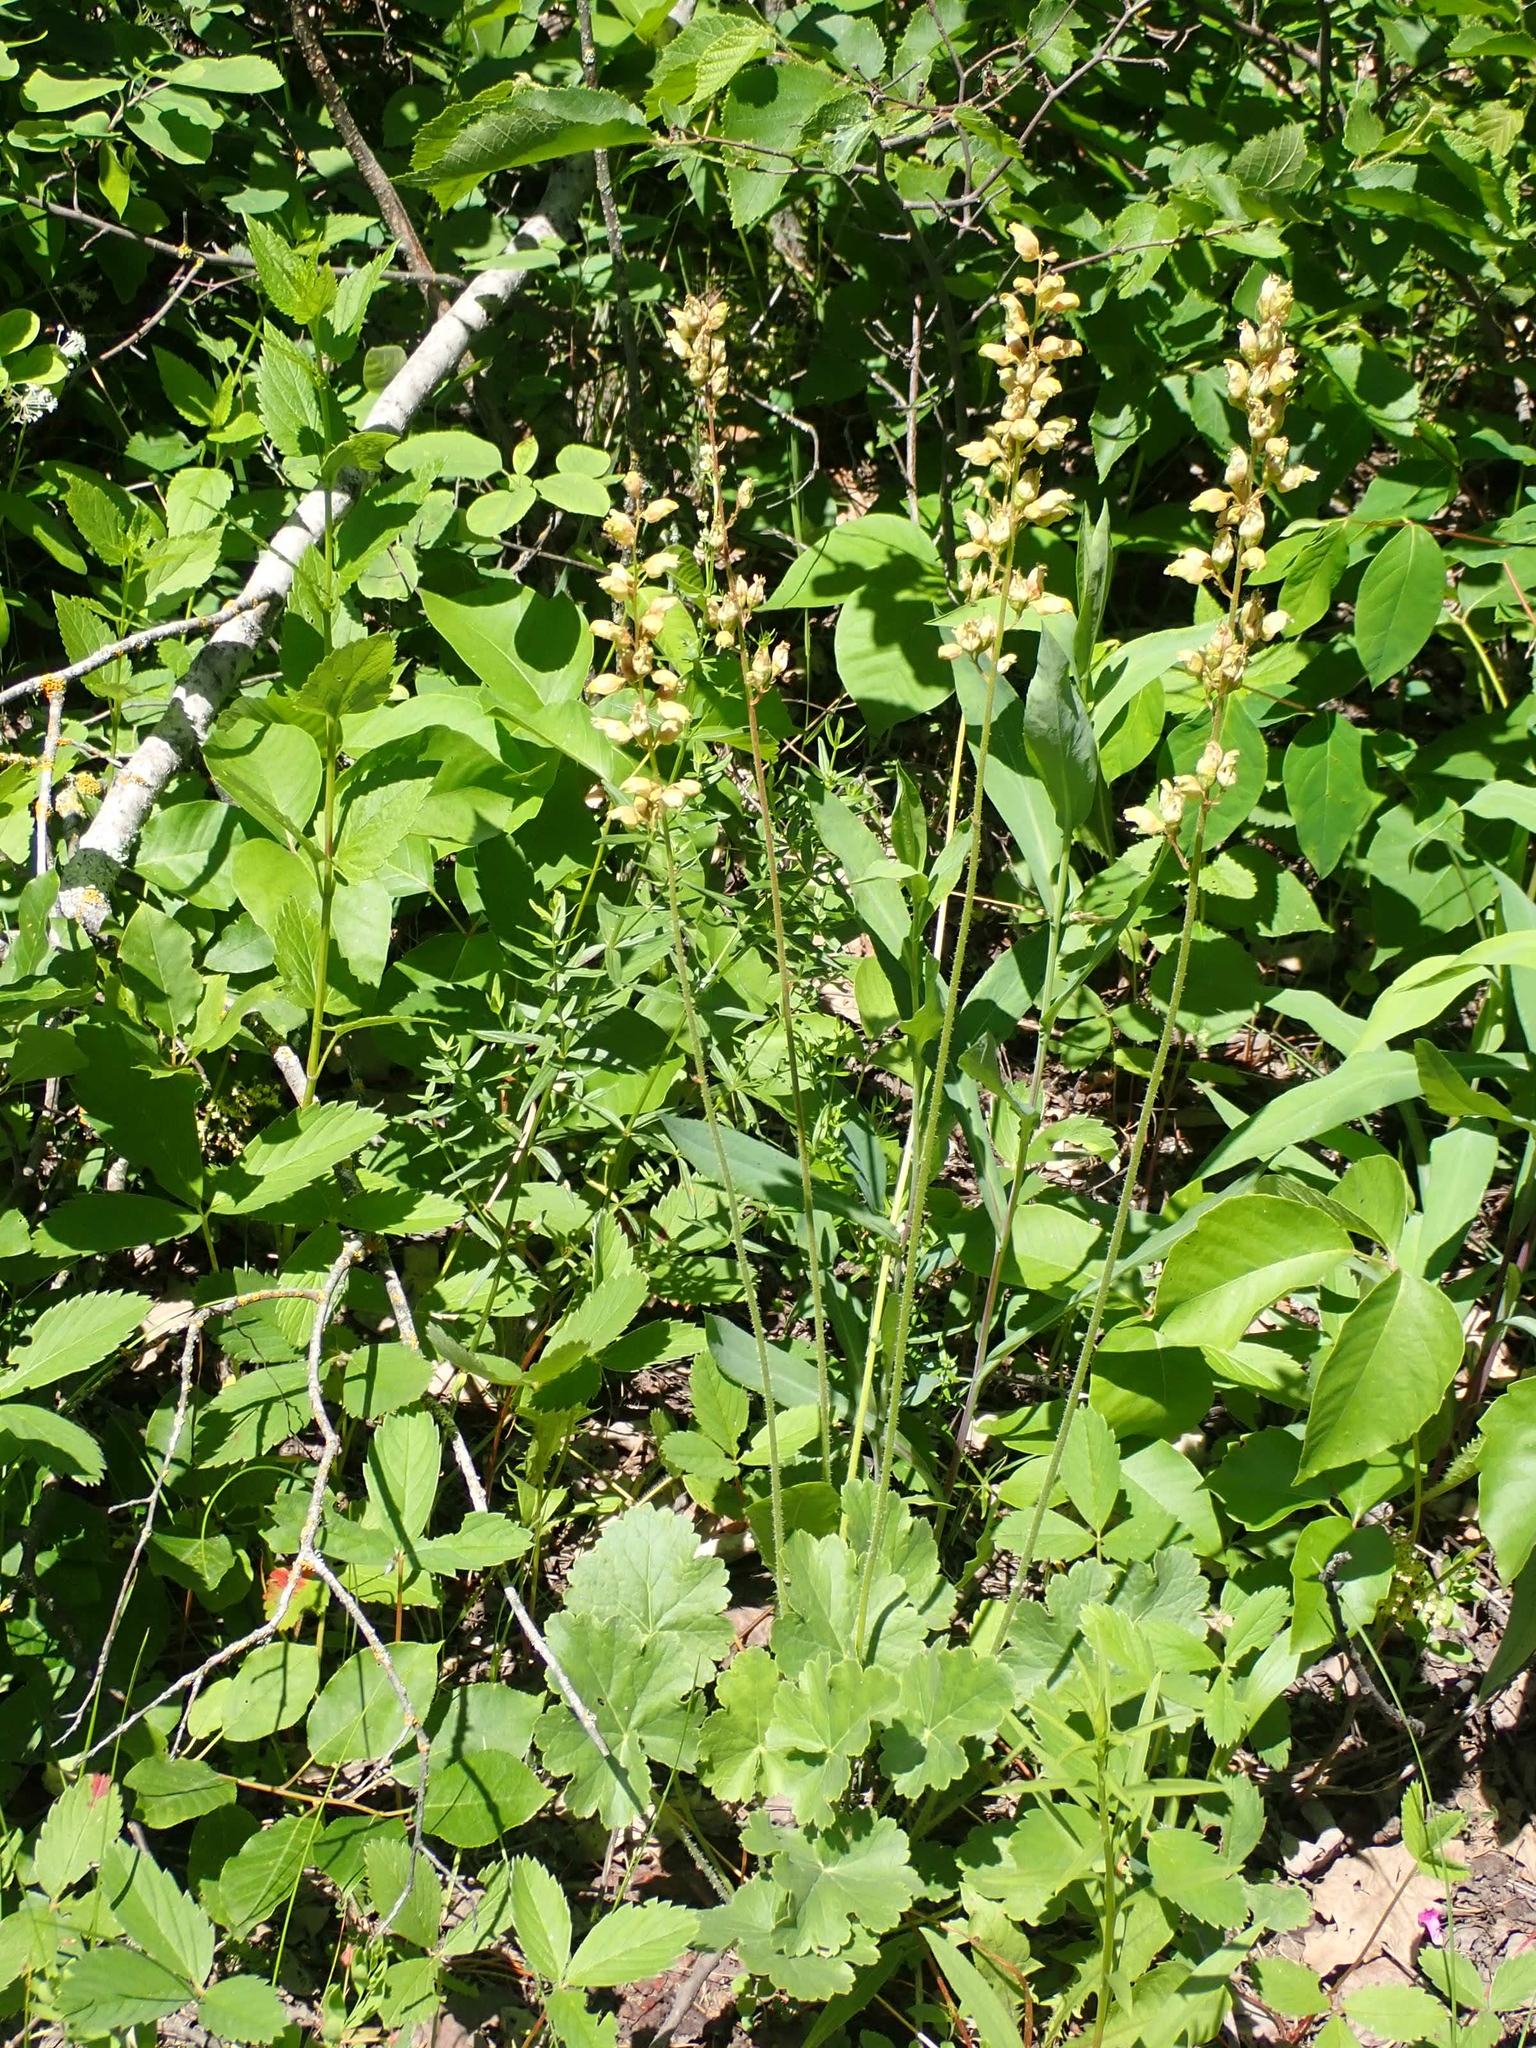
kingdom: Plantae
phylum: Tracheophyta
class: Magnoliopsida
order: Saxifragales
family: Saxifragaceae
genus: Heuchera
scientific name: Heuchera richardsonii
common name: Richardson's alumroot
